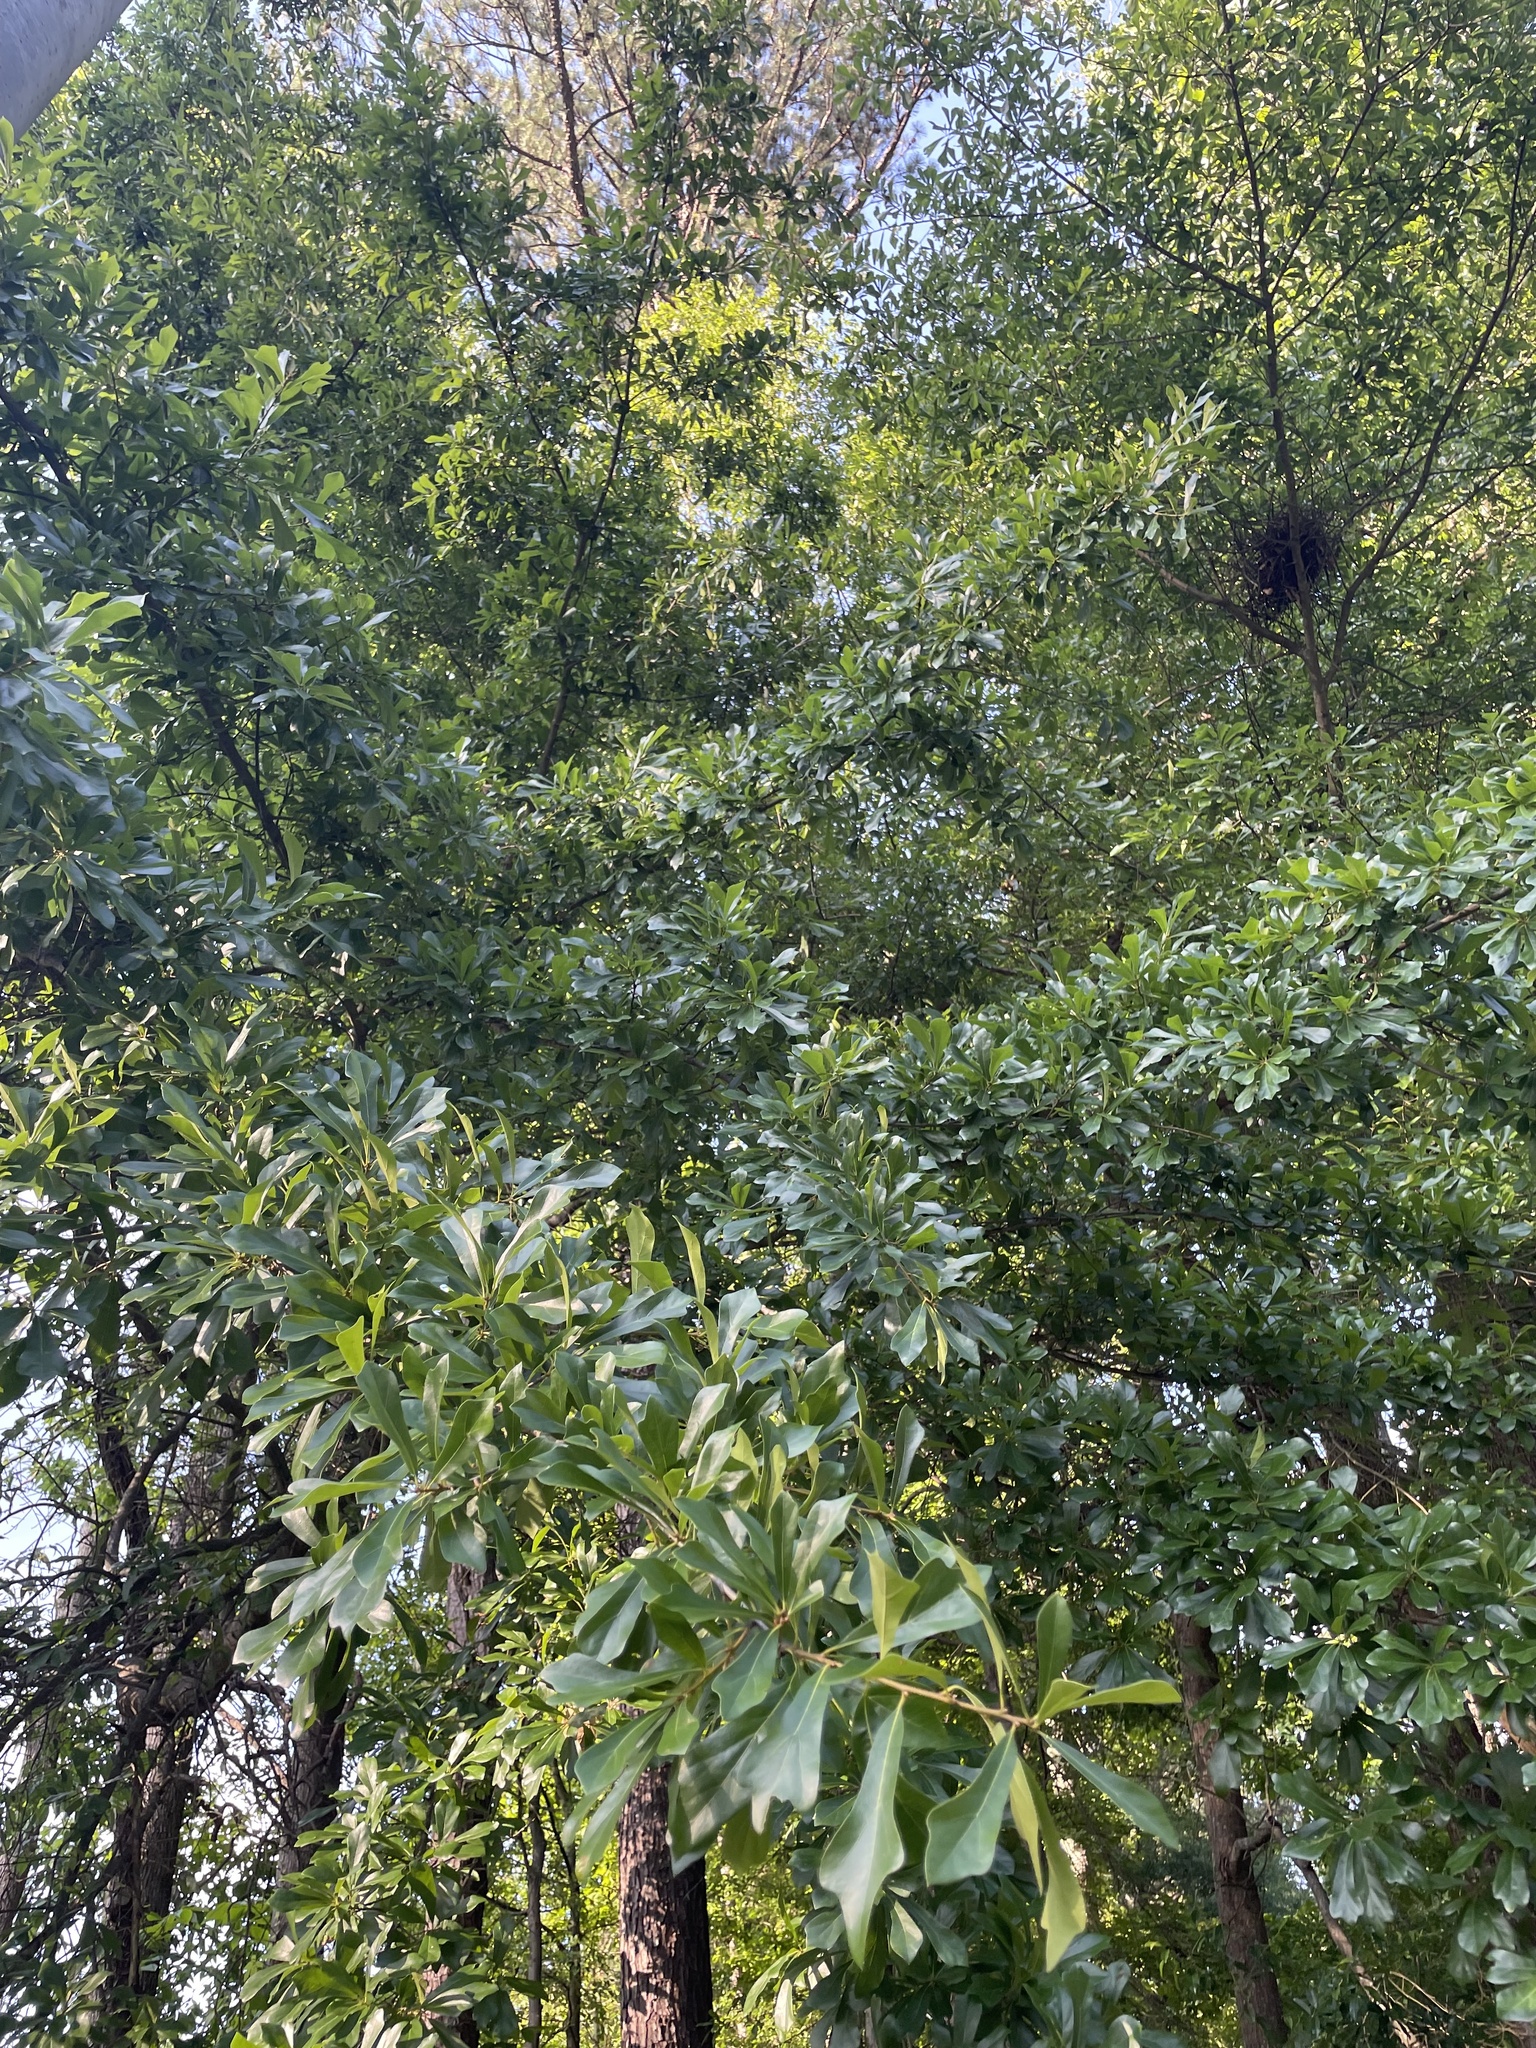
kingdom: Plantae
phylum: Tracheophyta
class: Magnoliopsida
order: Fagales
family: Fagaceae
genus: Quercus
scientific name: Quercus nigra
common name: Water oak
